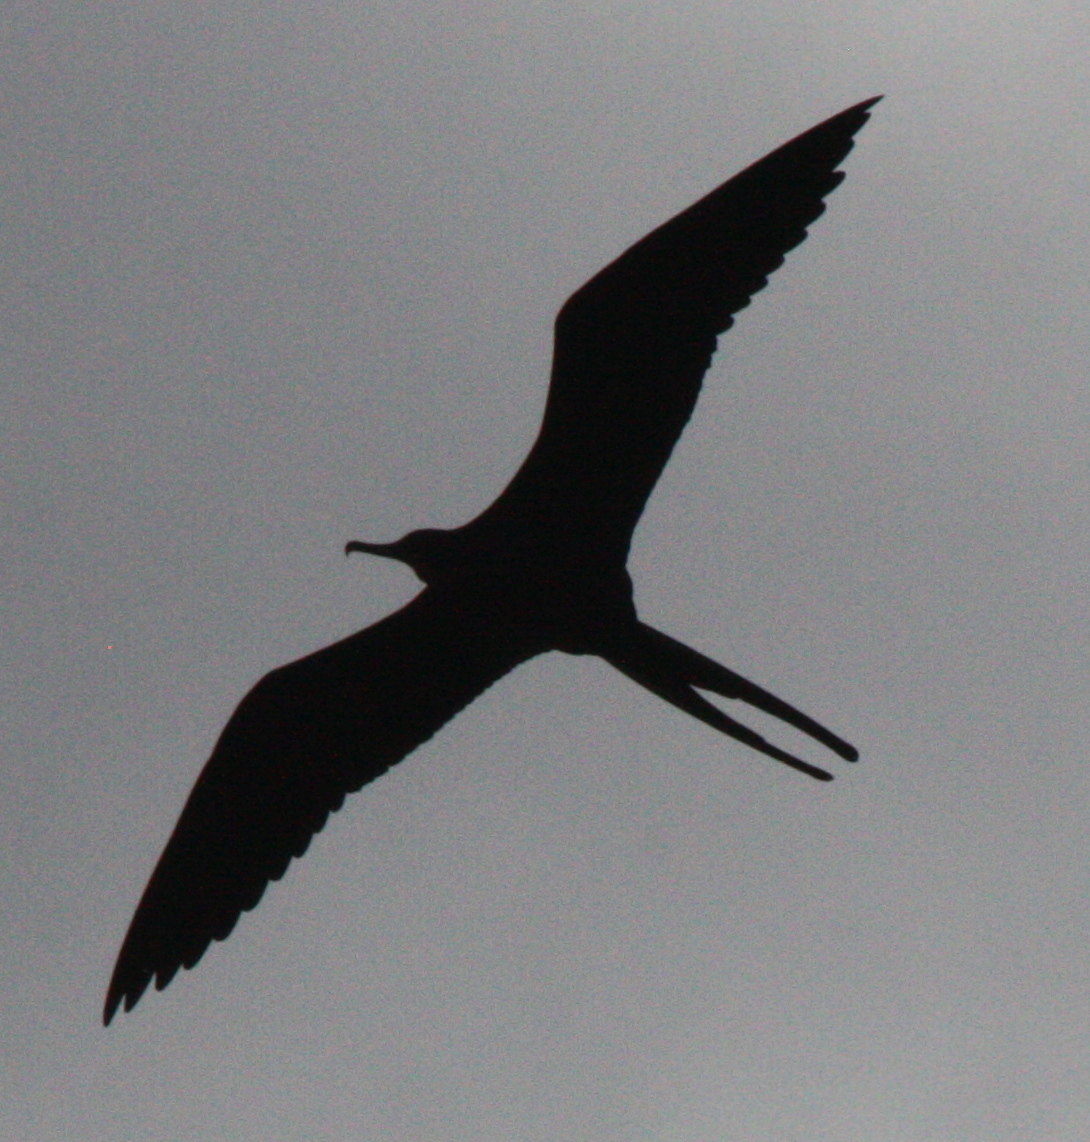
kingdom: Animalia
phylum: Chordata
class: Aves
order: Suliformes
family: Fregatidae
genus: Fregata
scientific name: Fregata magnificens
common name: Magnificent frigatebird
